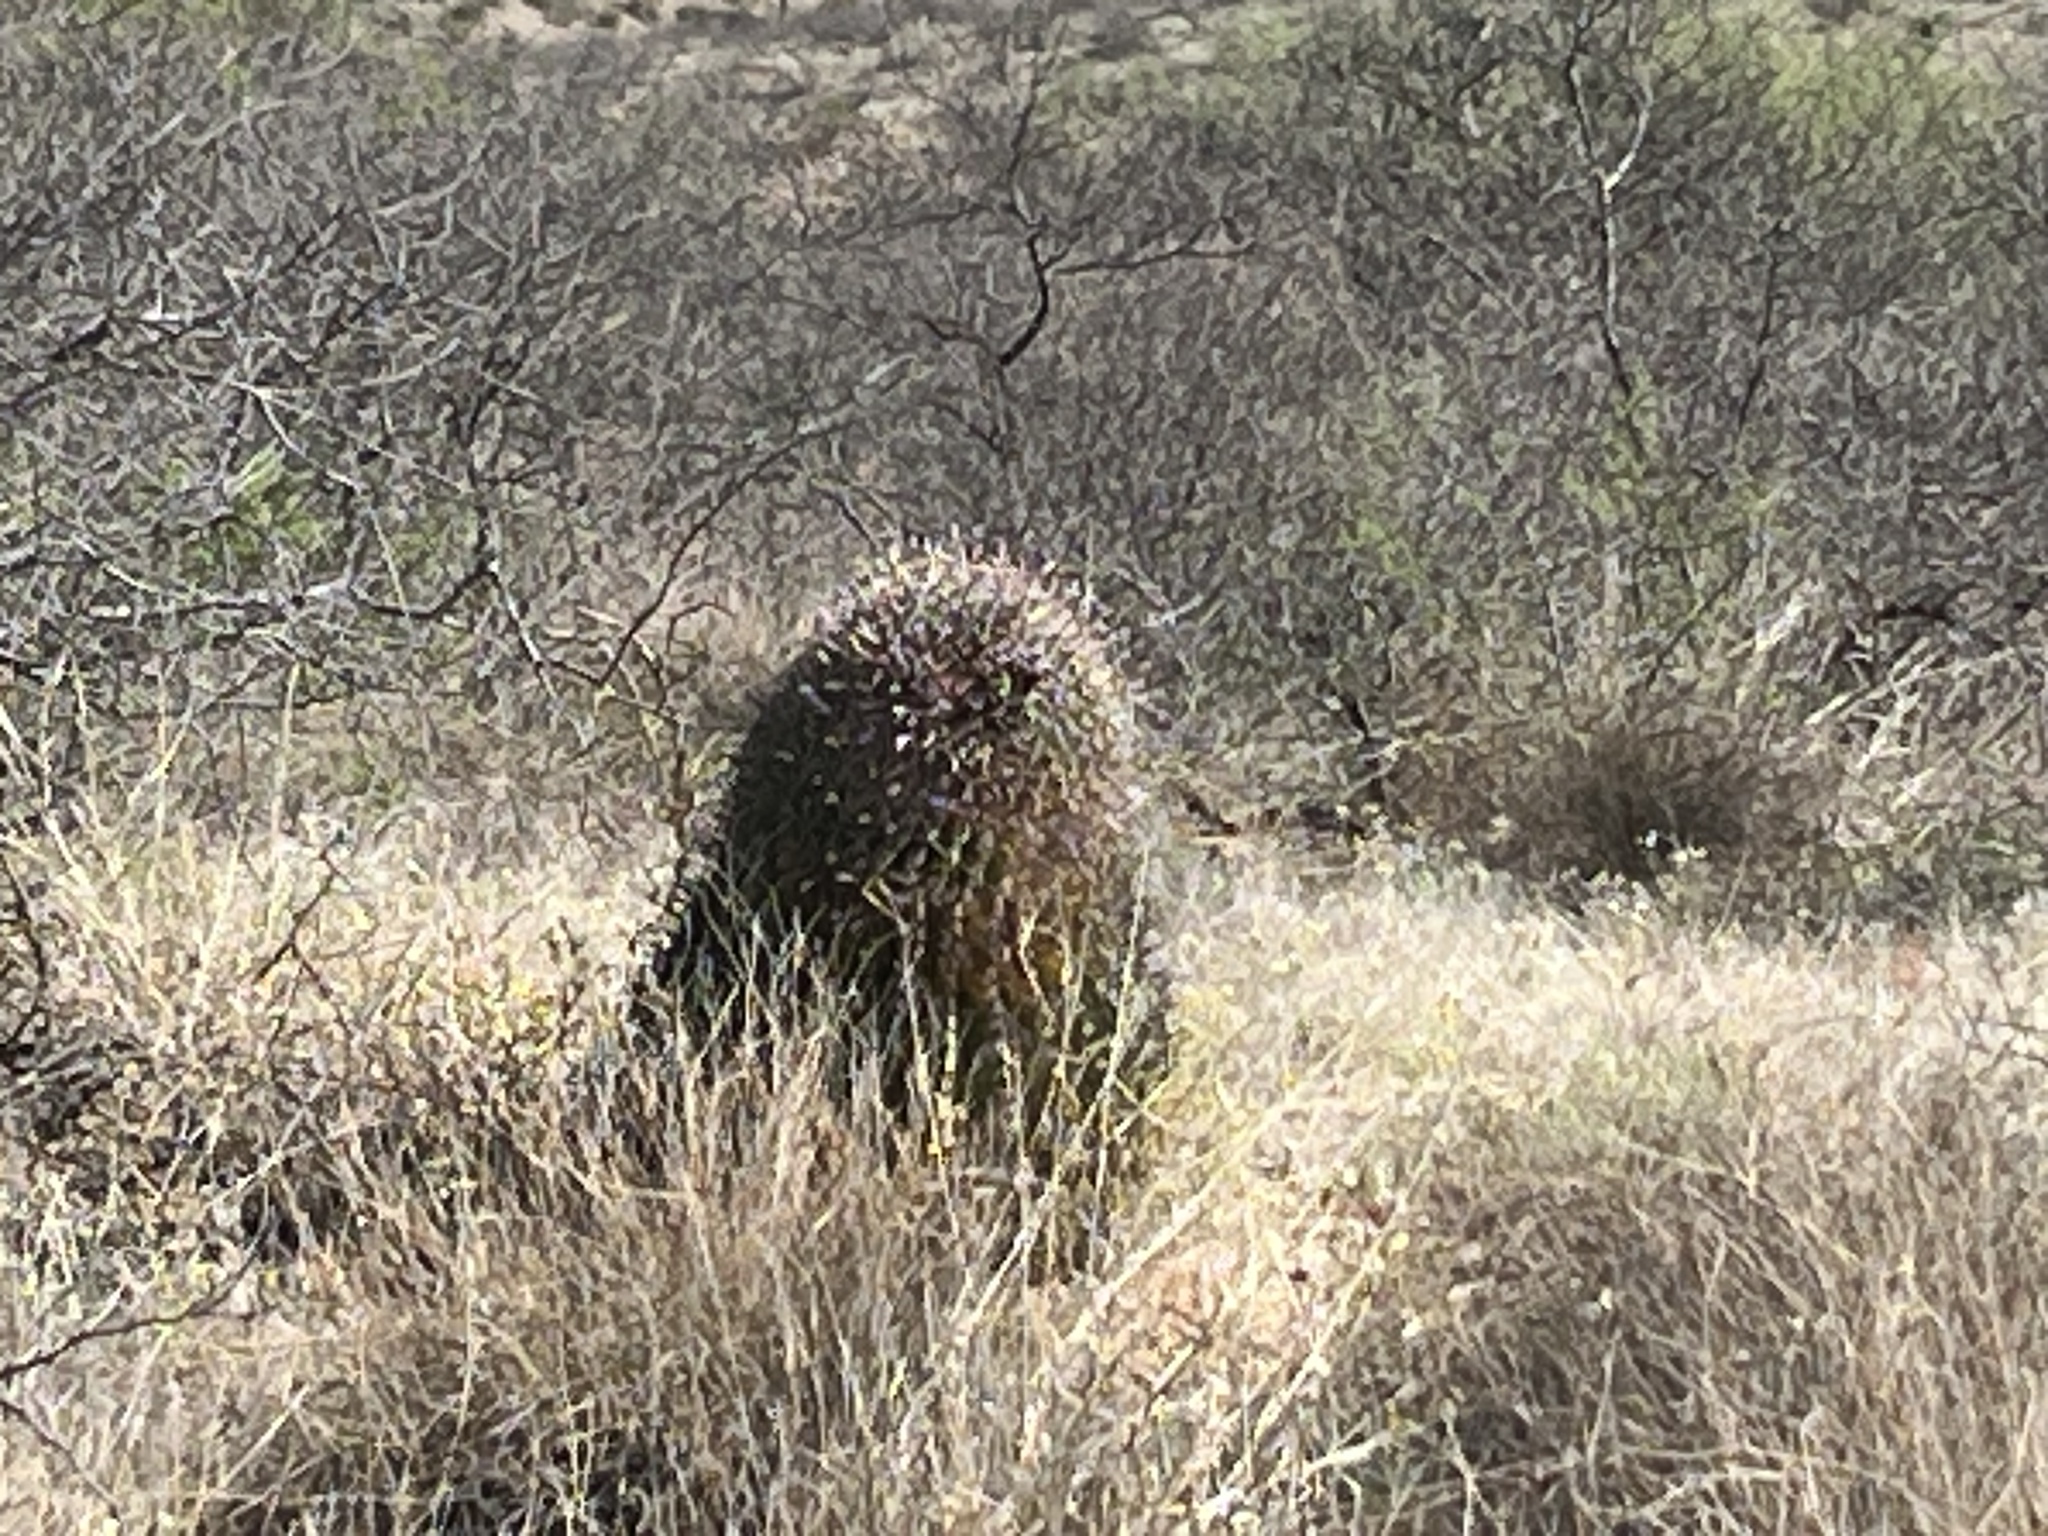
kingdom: Plantae
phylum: Tracheophyta
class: Magnoliopsida
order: Caryophyllales
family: Cactaceae
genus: Ferocactus
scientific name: Ferocactus wislizeni
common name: Candy barrel cactus
